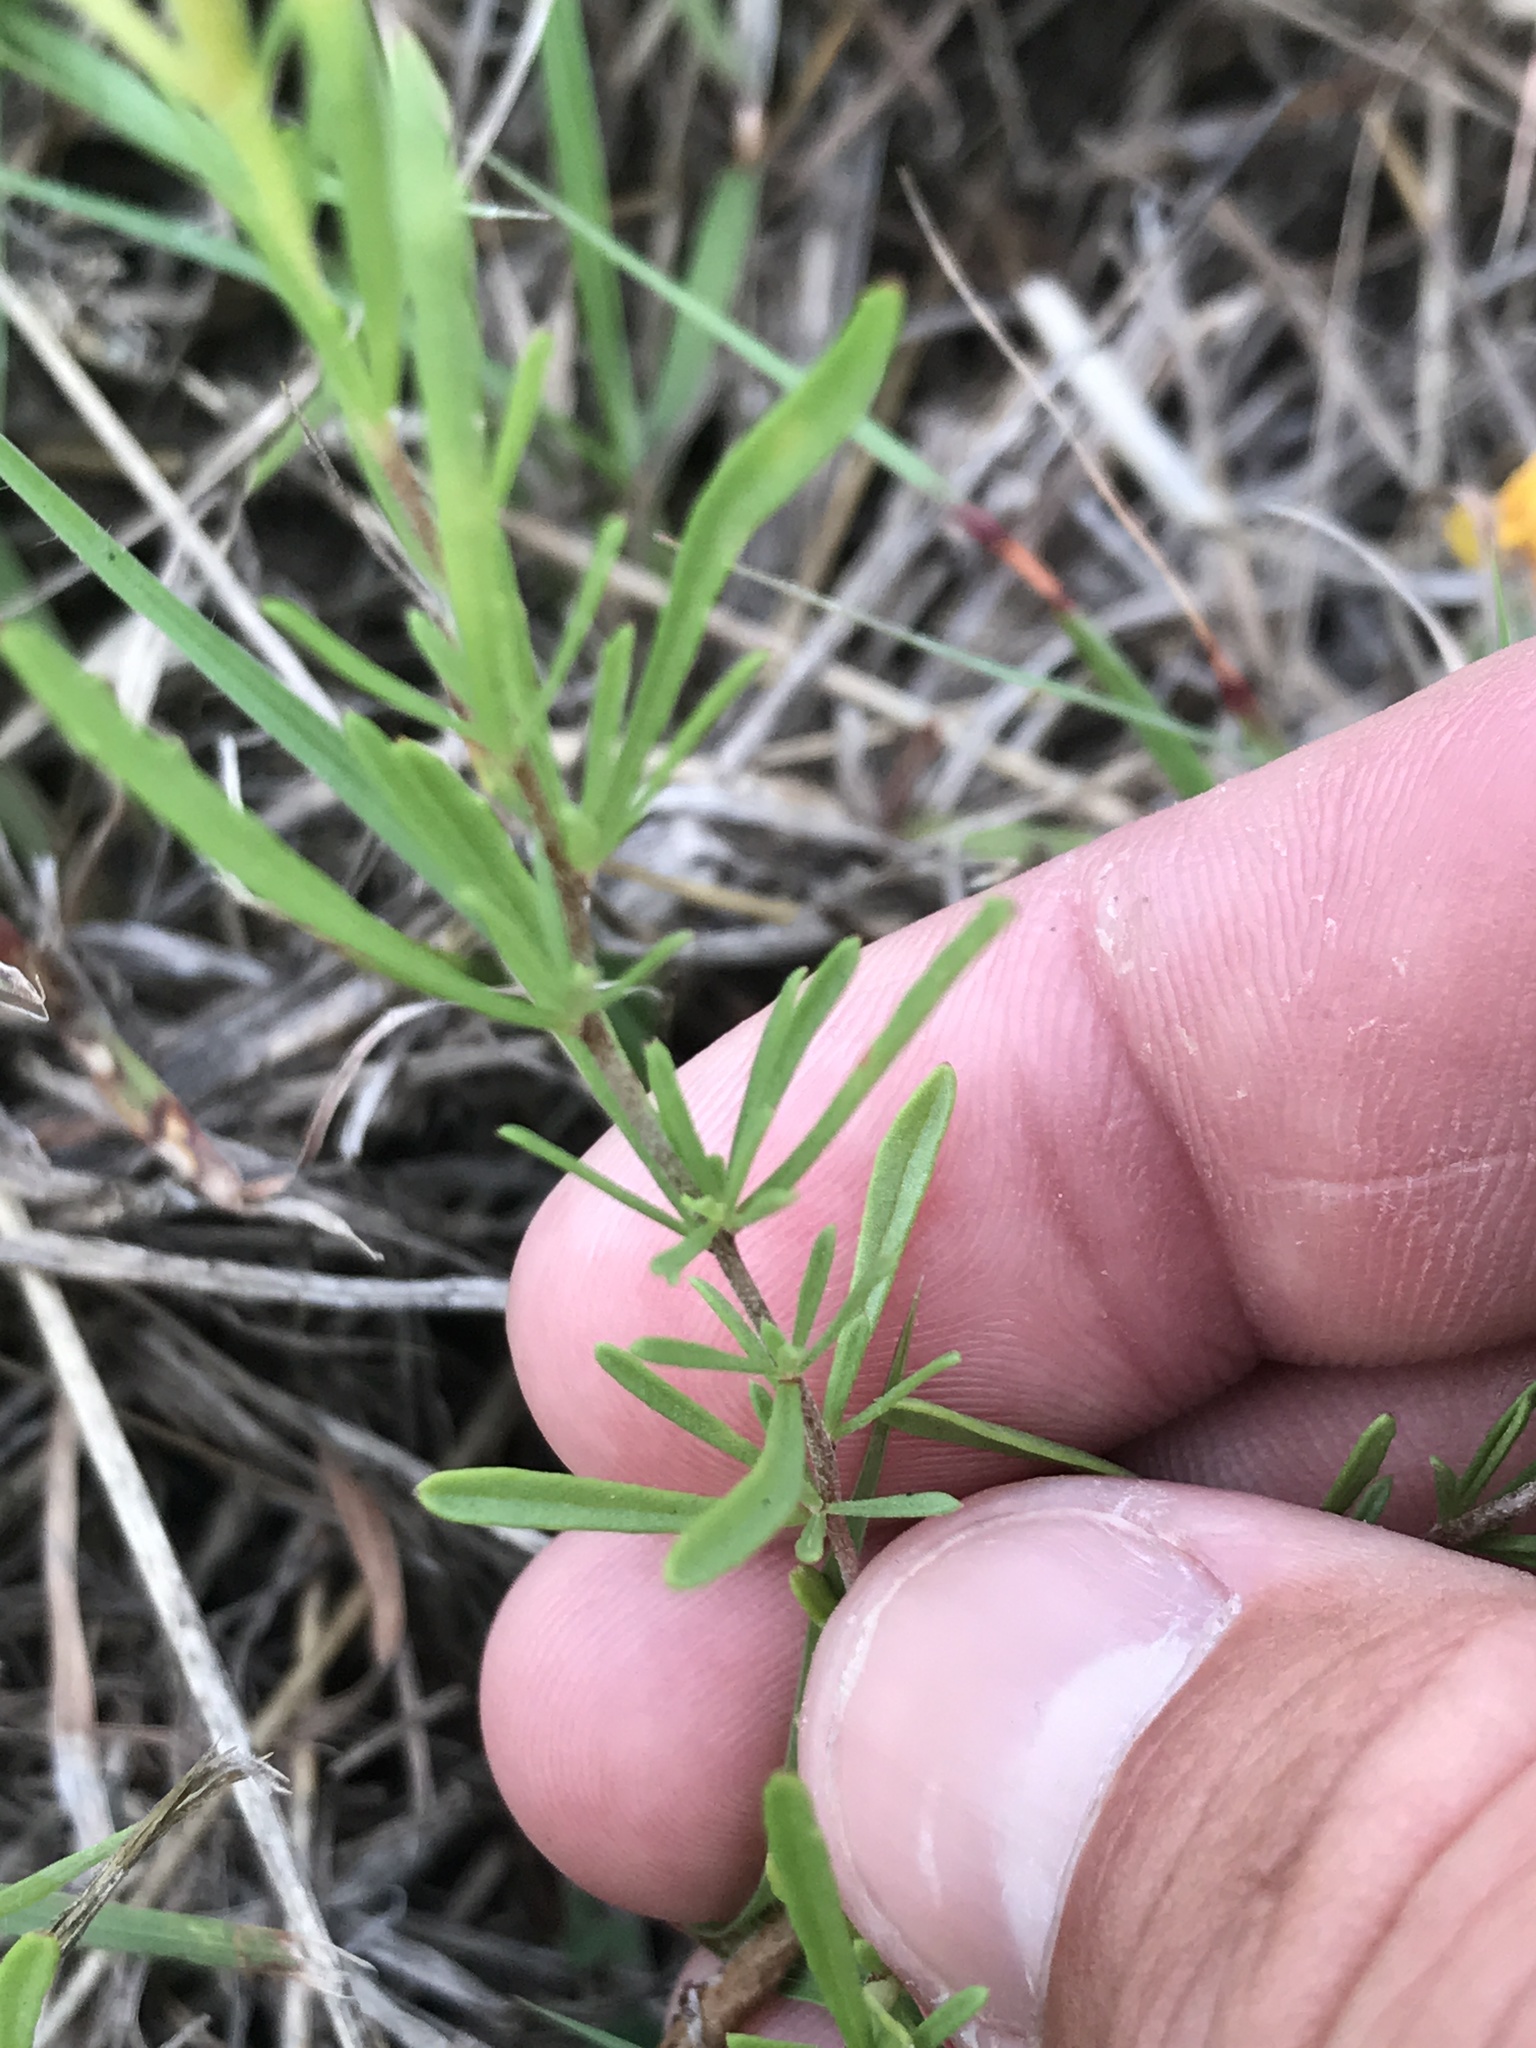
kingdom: Plantae
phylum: Tracheophyta
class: Magnoliopsida
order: Myrtales
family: Onagraceae
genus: Oenothera
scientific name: Oenothera
